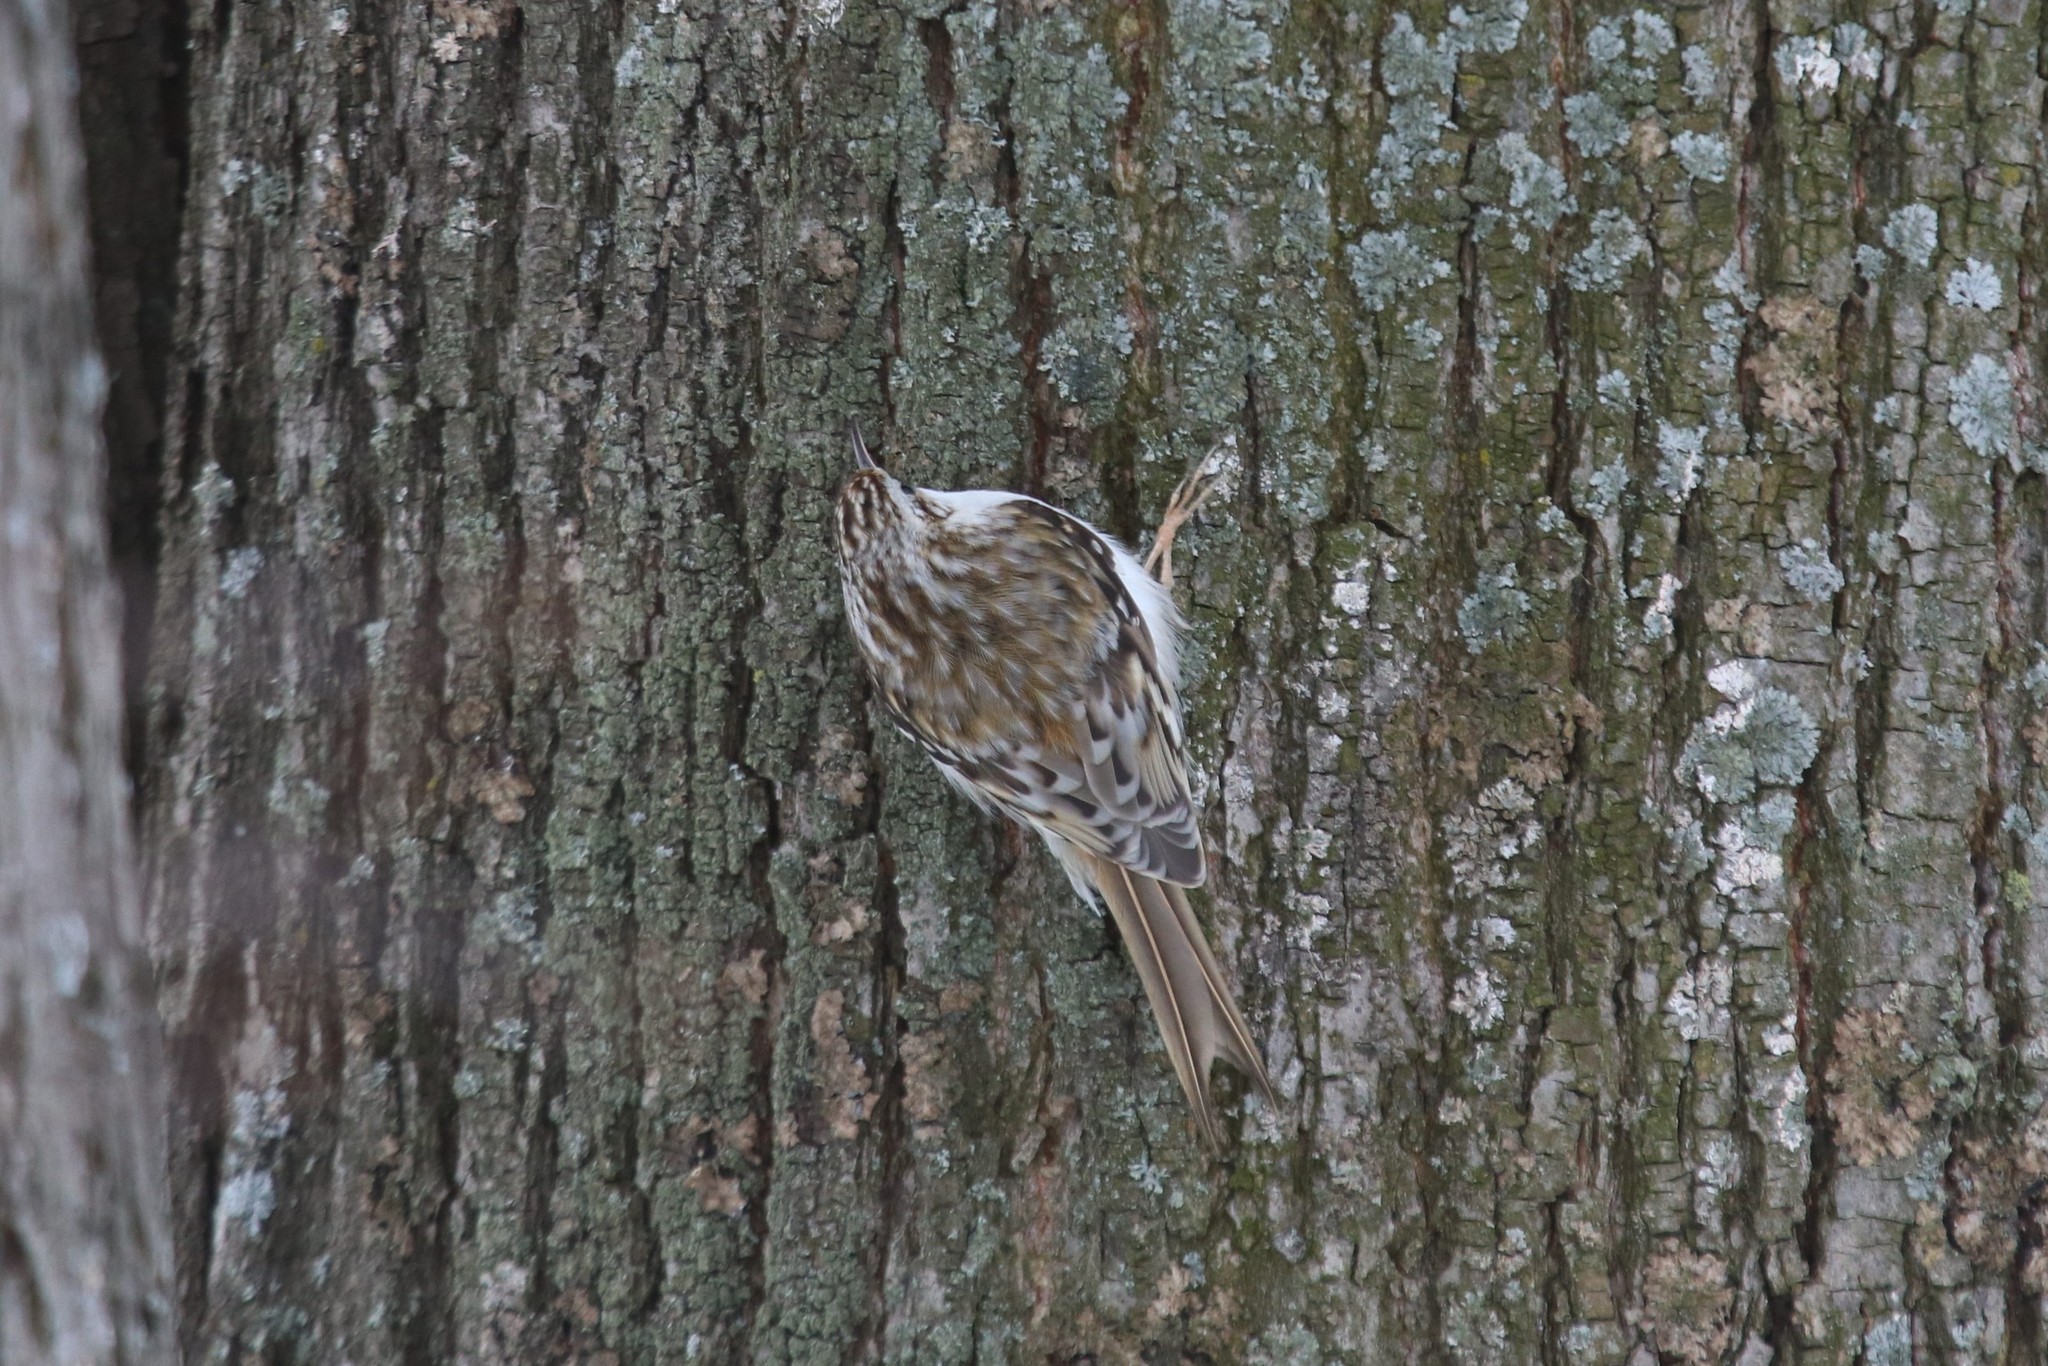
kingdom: Animalia
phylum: Chordata
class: Aves
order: Passeriformes
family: Certhiidae
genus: Certhia
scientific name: Certhia familiaris
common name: Eurasian treecreeper
